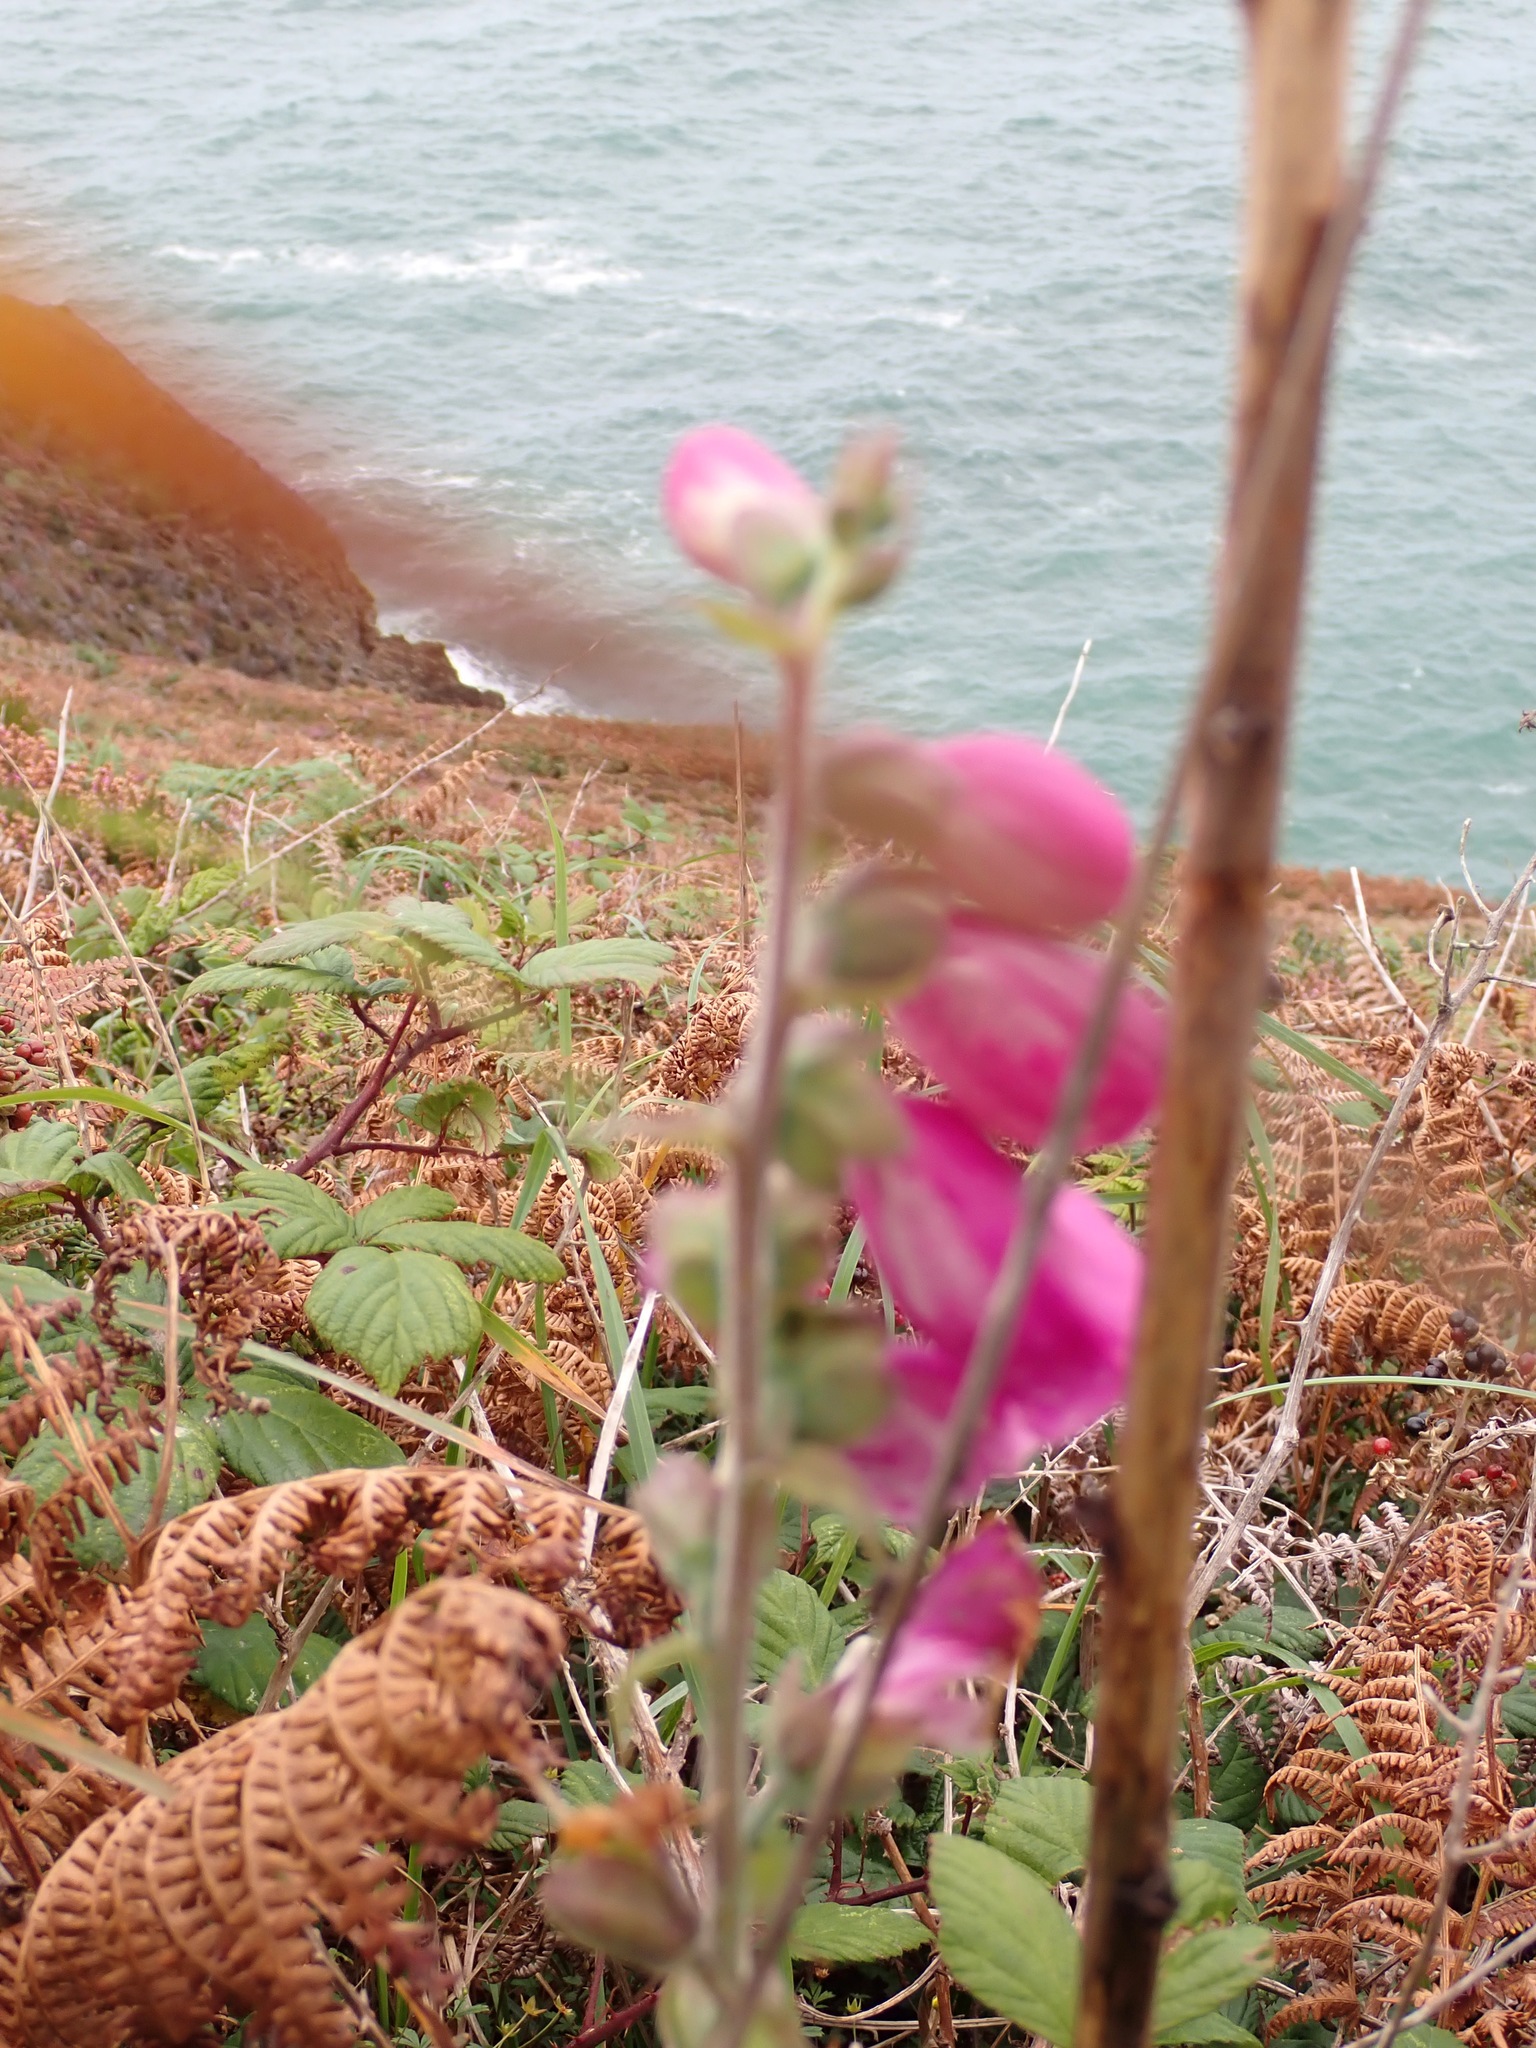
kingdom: Plantae
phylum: Tracheophyta
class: Magnoliopsida
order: Lamiales
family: Plantaginaceae
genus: Digitalis
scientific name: Digitalis purpurea
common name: Foxglove
